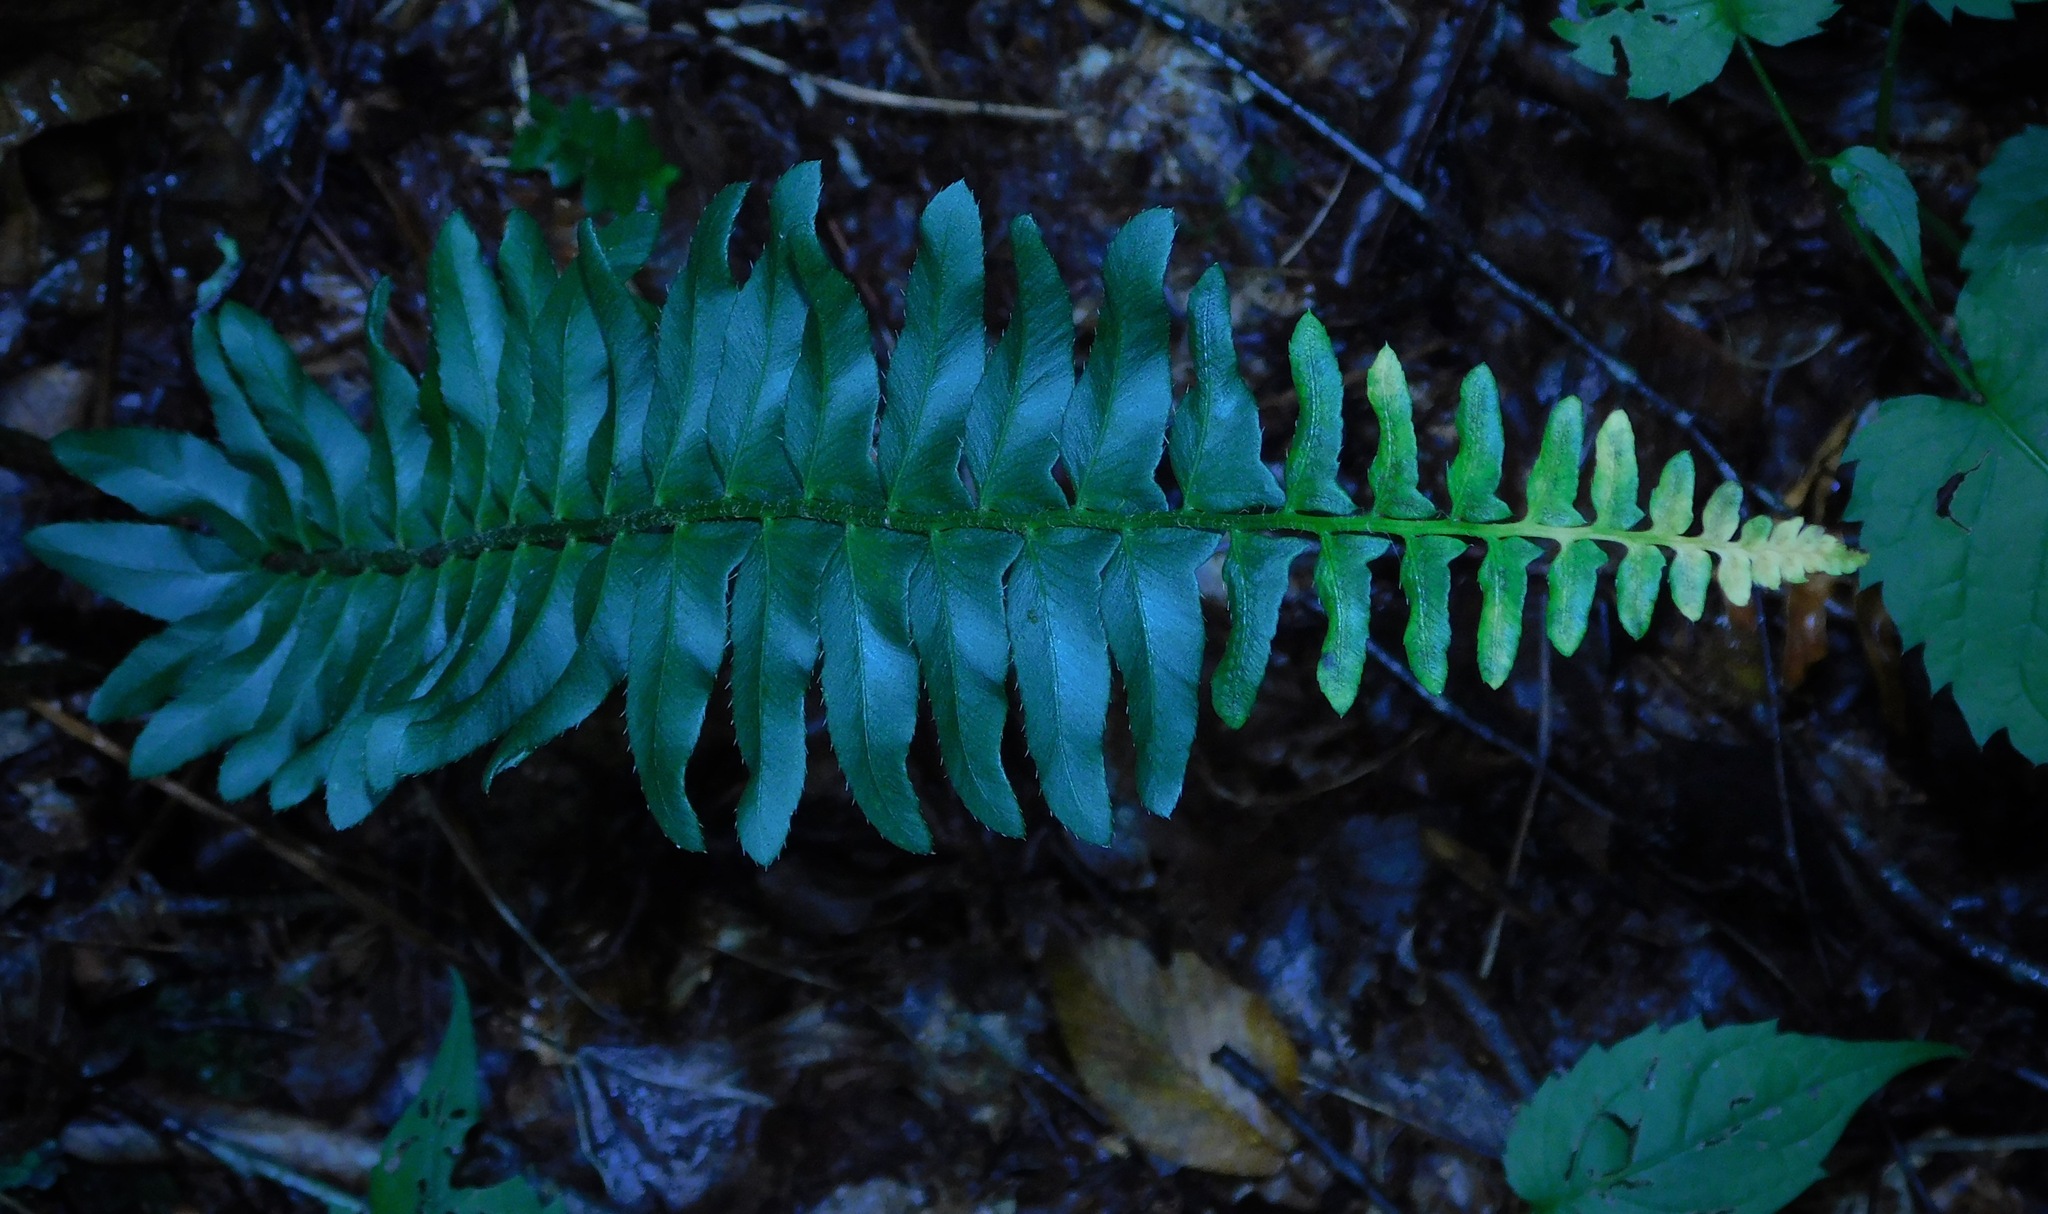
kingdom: Plantae
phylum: Tracheophyta
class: Polypodiopsida
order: Polypodiales
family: Dryopteridaceae
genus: Polystichum
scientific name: Polystichum acrostichoides
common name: Christmas fern
